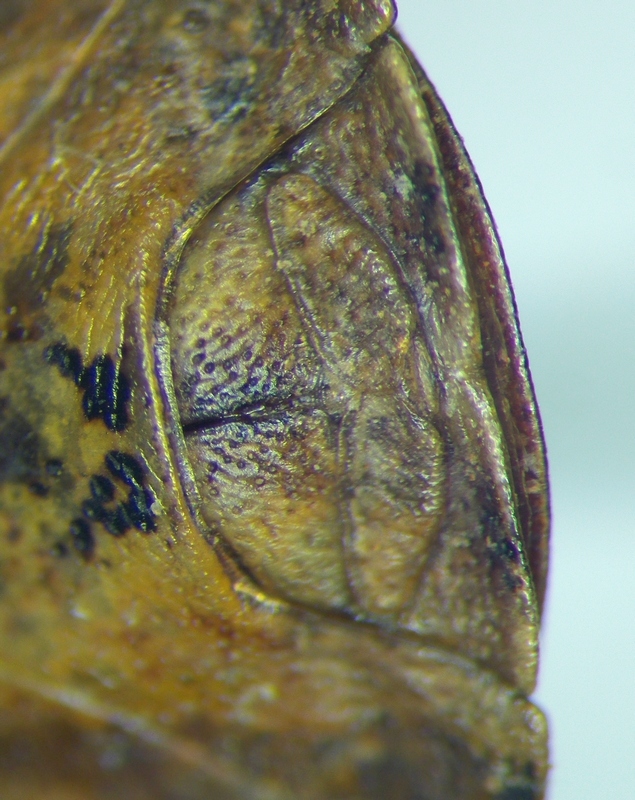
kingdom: Animalia
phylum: Arthropoda
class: Insecta
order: Hemiptera
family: Scutelleridae
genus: Eurygaster
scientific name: Eurygaster integriceps
